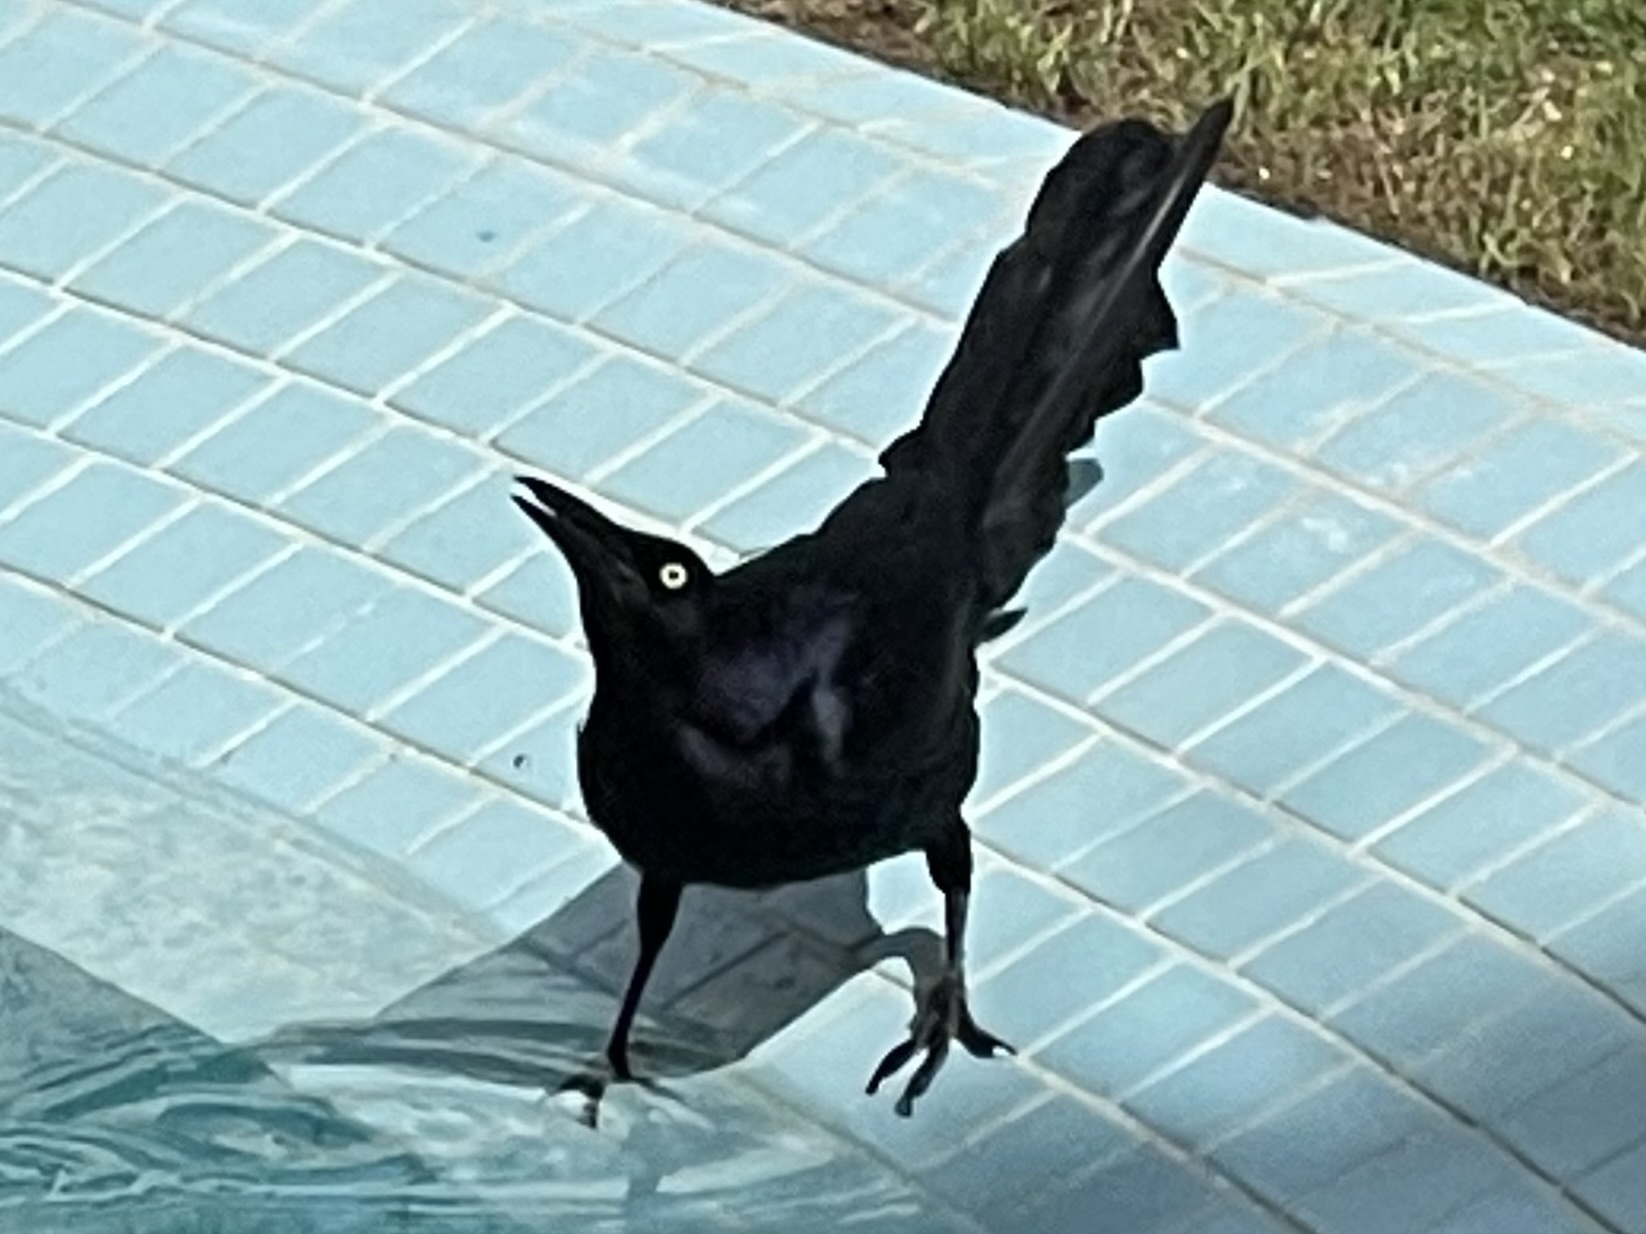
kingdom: Animalia
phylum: Chordata
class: Aves
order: Passeriformes
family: Icteridae
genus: Quiscalus
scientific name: Quiscalus mexicanus
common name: Great-tailed grackle
